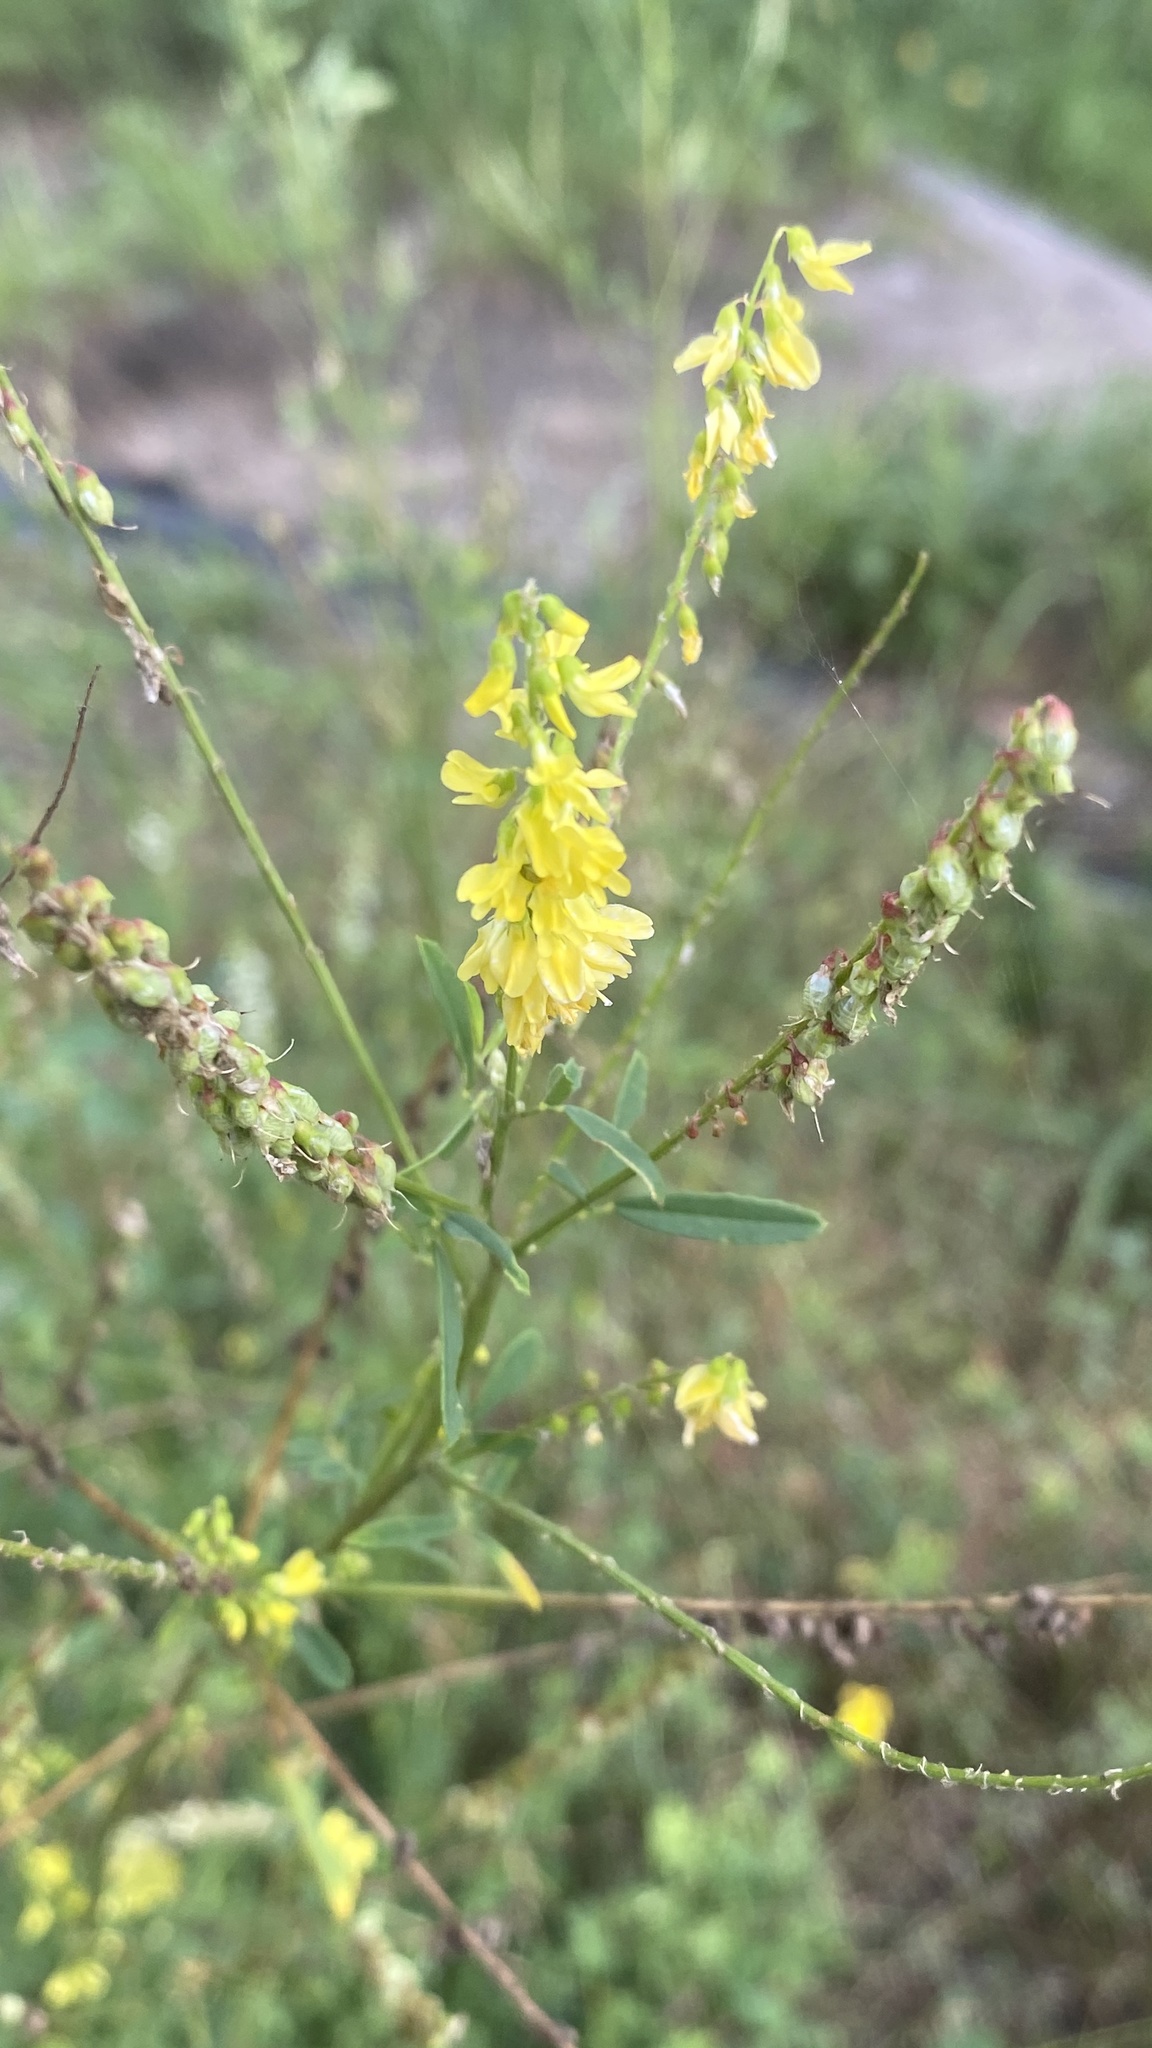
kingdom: Plantae
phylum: Tracheophyta
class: Magnoliopsida
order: Fabales
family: Fabaceae
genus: Melilotus
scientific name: Melilotus officinalis
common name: Sweetclover
